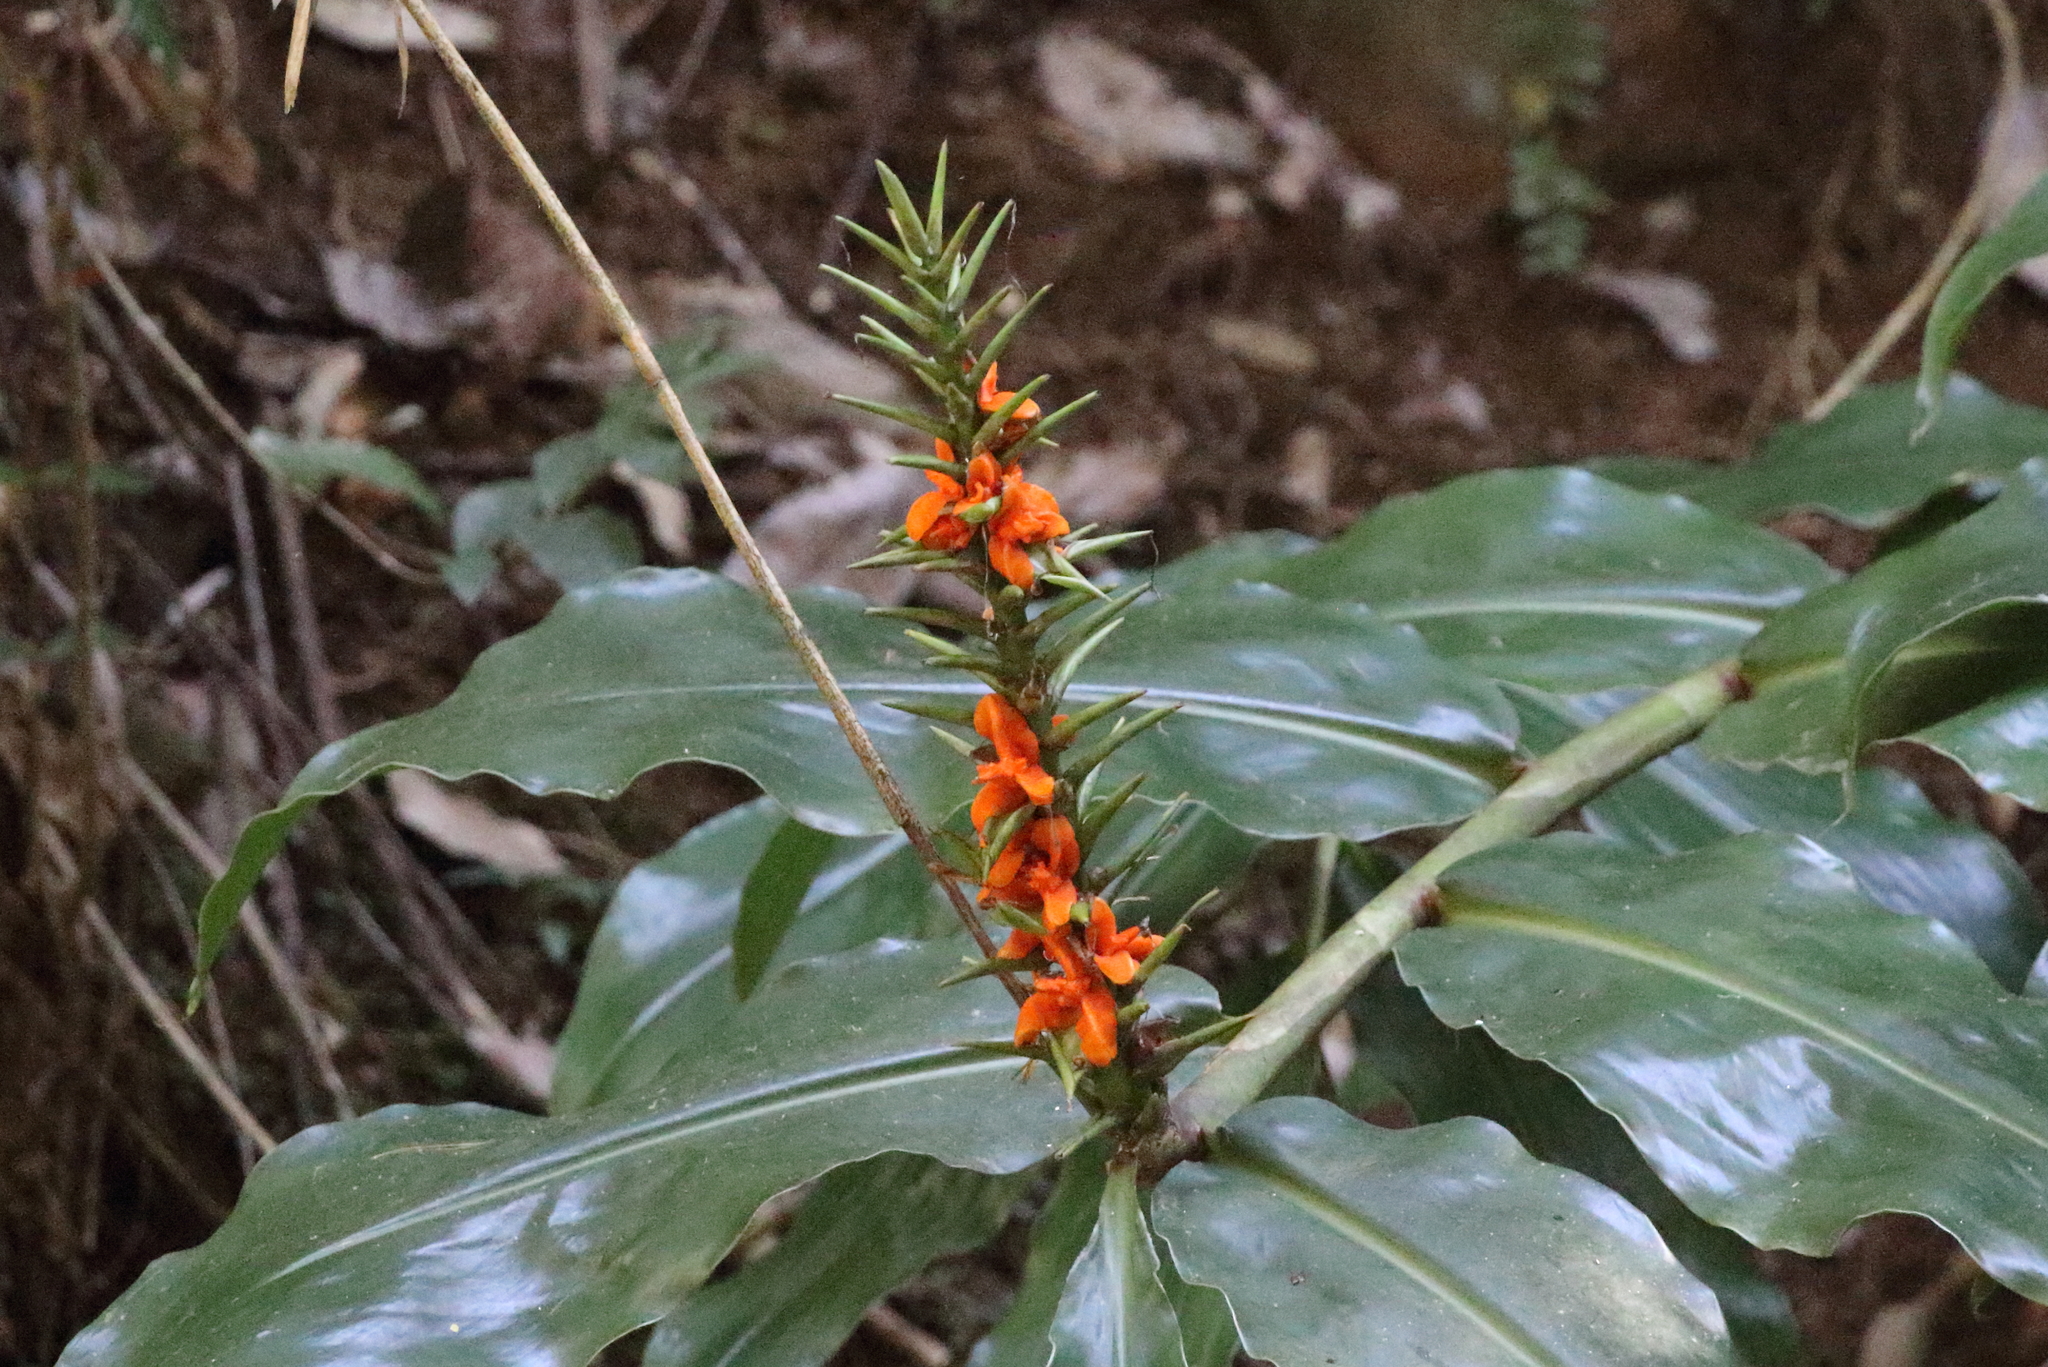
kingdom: Plantae
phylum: Tracheophyta
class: Liliopsida
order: Zingiberales
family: Zingiberaceae
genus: Hedychium
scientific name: Hedychium gardnerianum
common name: Himalayan ginger
